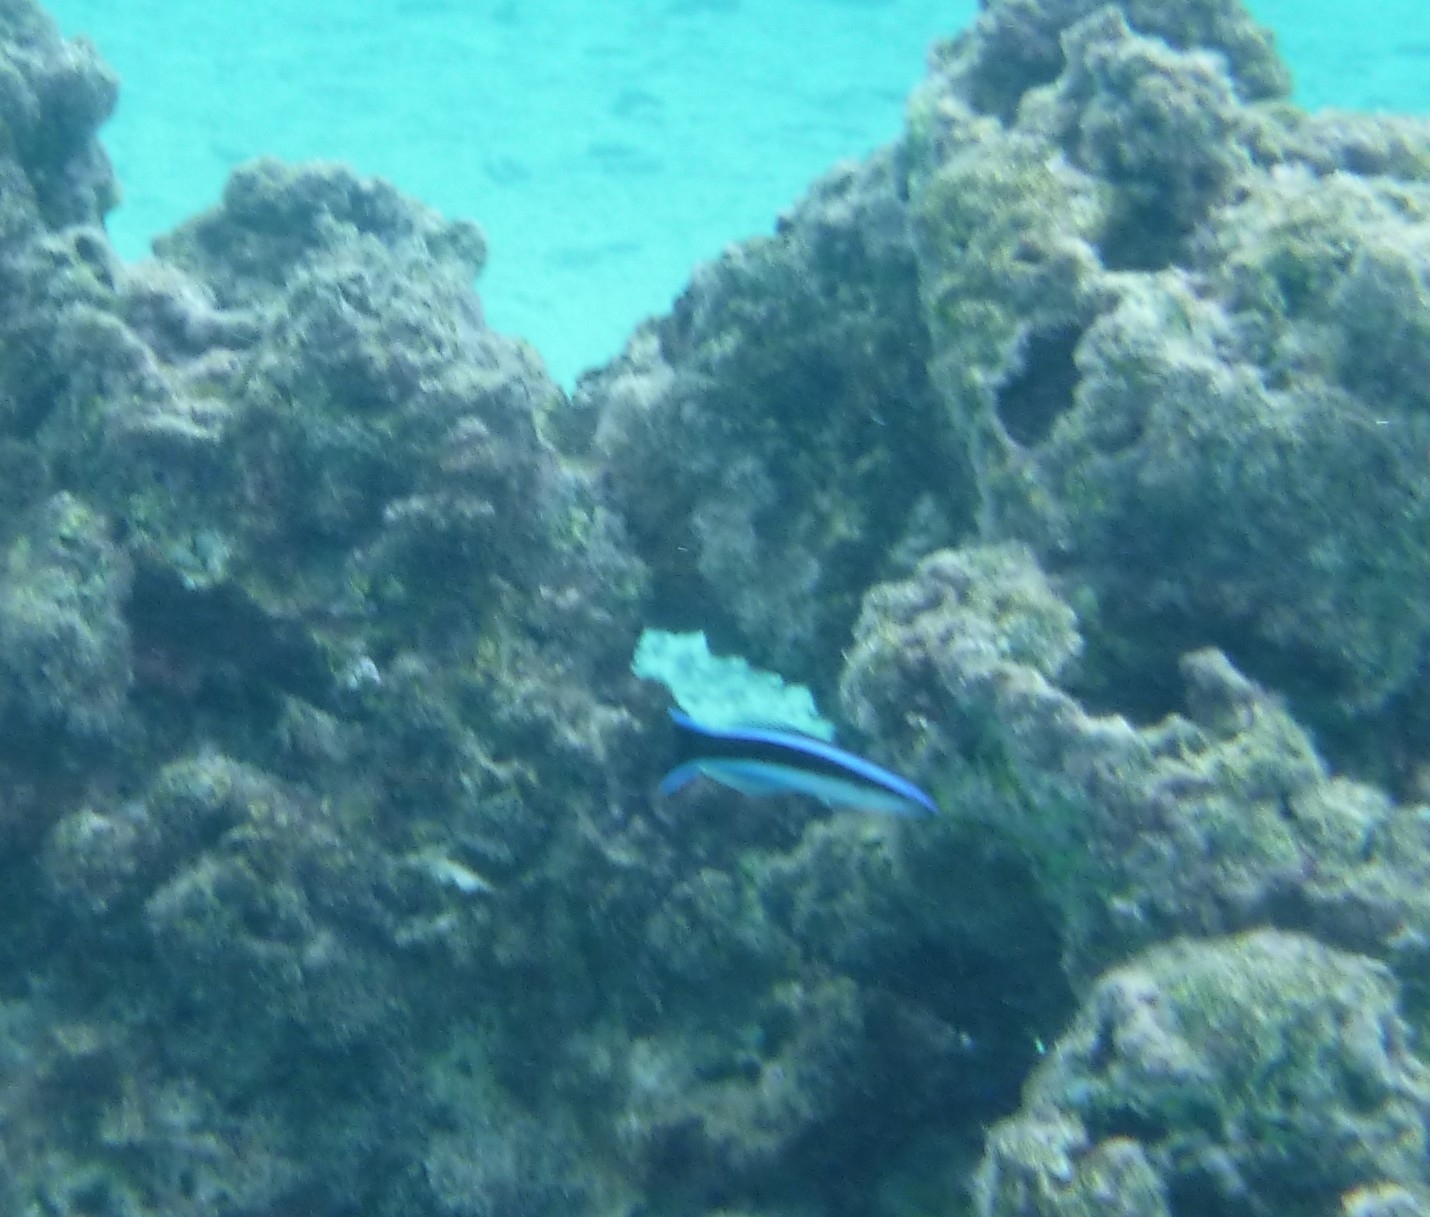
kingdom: Animalia
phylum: Chordata
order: Perciformes
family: Labridae
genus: Labroides
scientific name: Labroides dimidiatus
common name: Blue diesel wrasse
